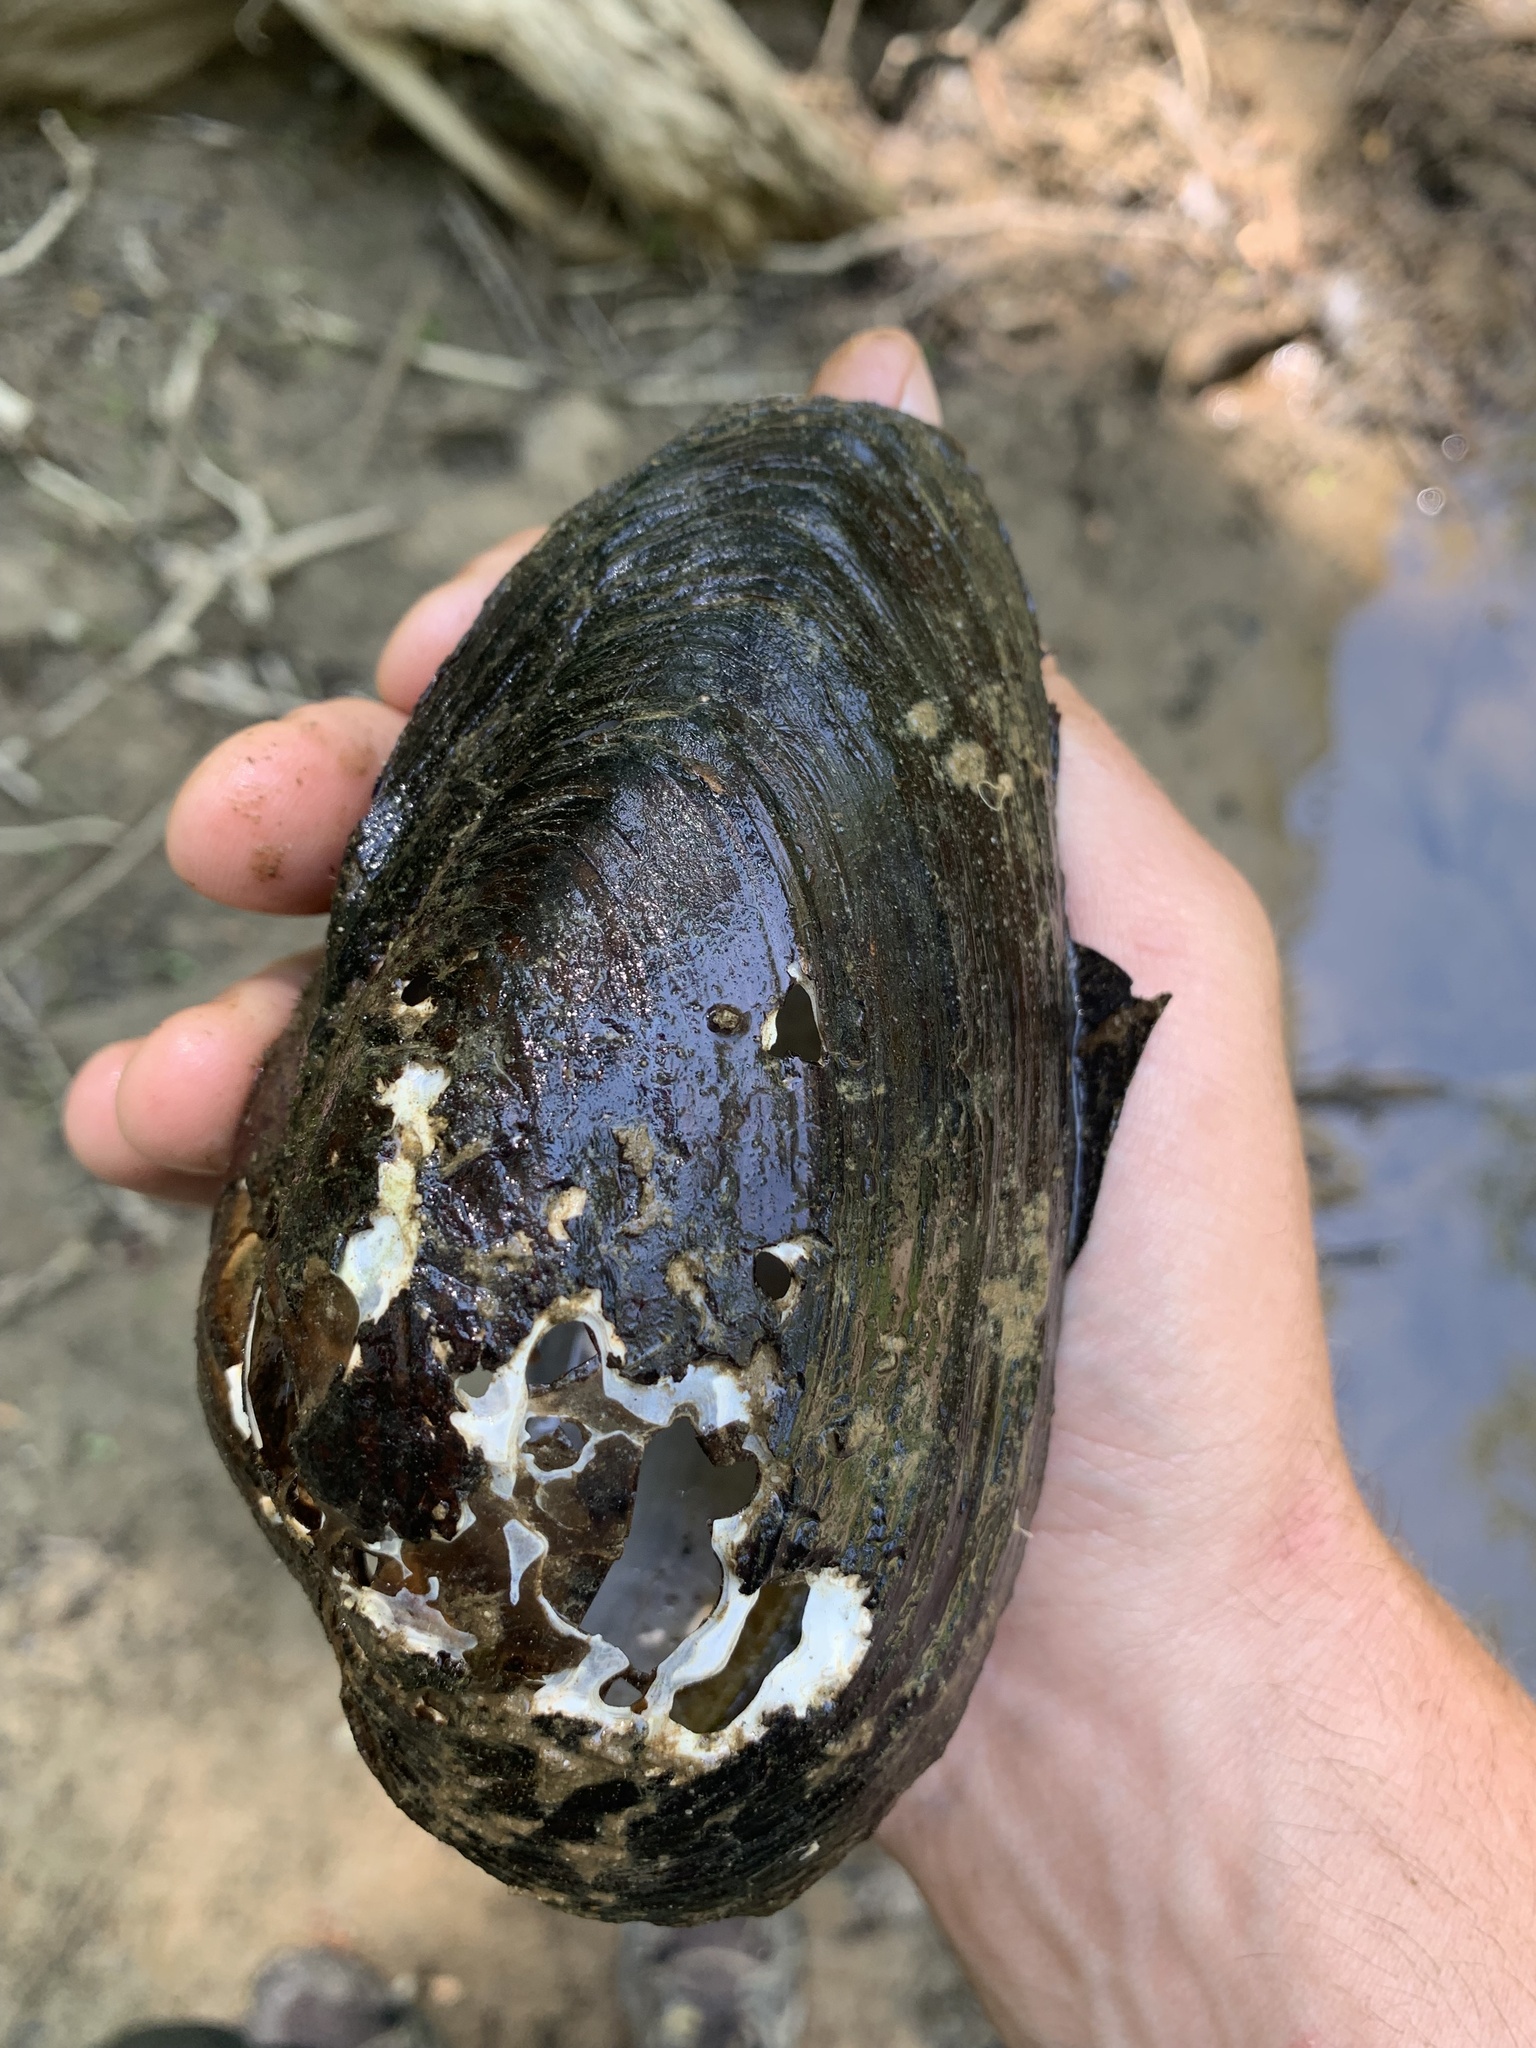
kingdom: Animalia
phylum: Mollusca
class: Bivalvia
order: Unionida
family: Unionidae
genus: Pyganodon
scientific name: Pyganodon grandis
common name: Giant floater
